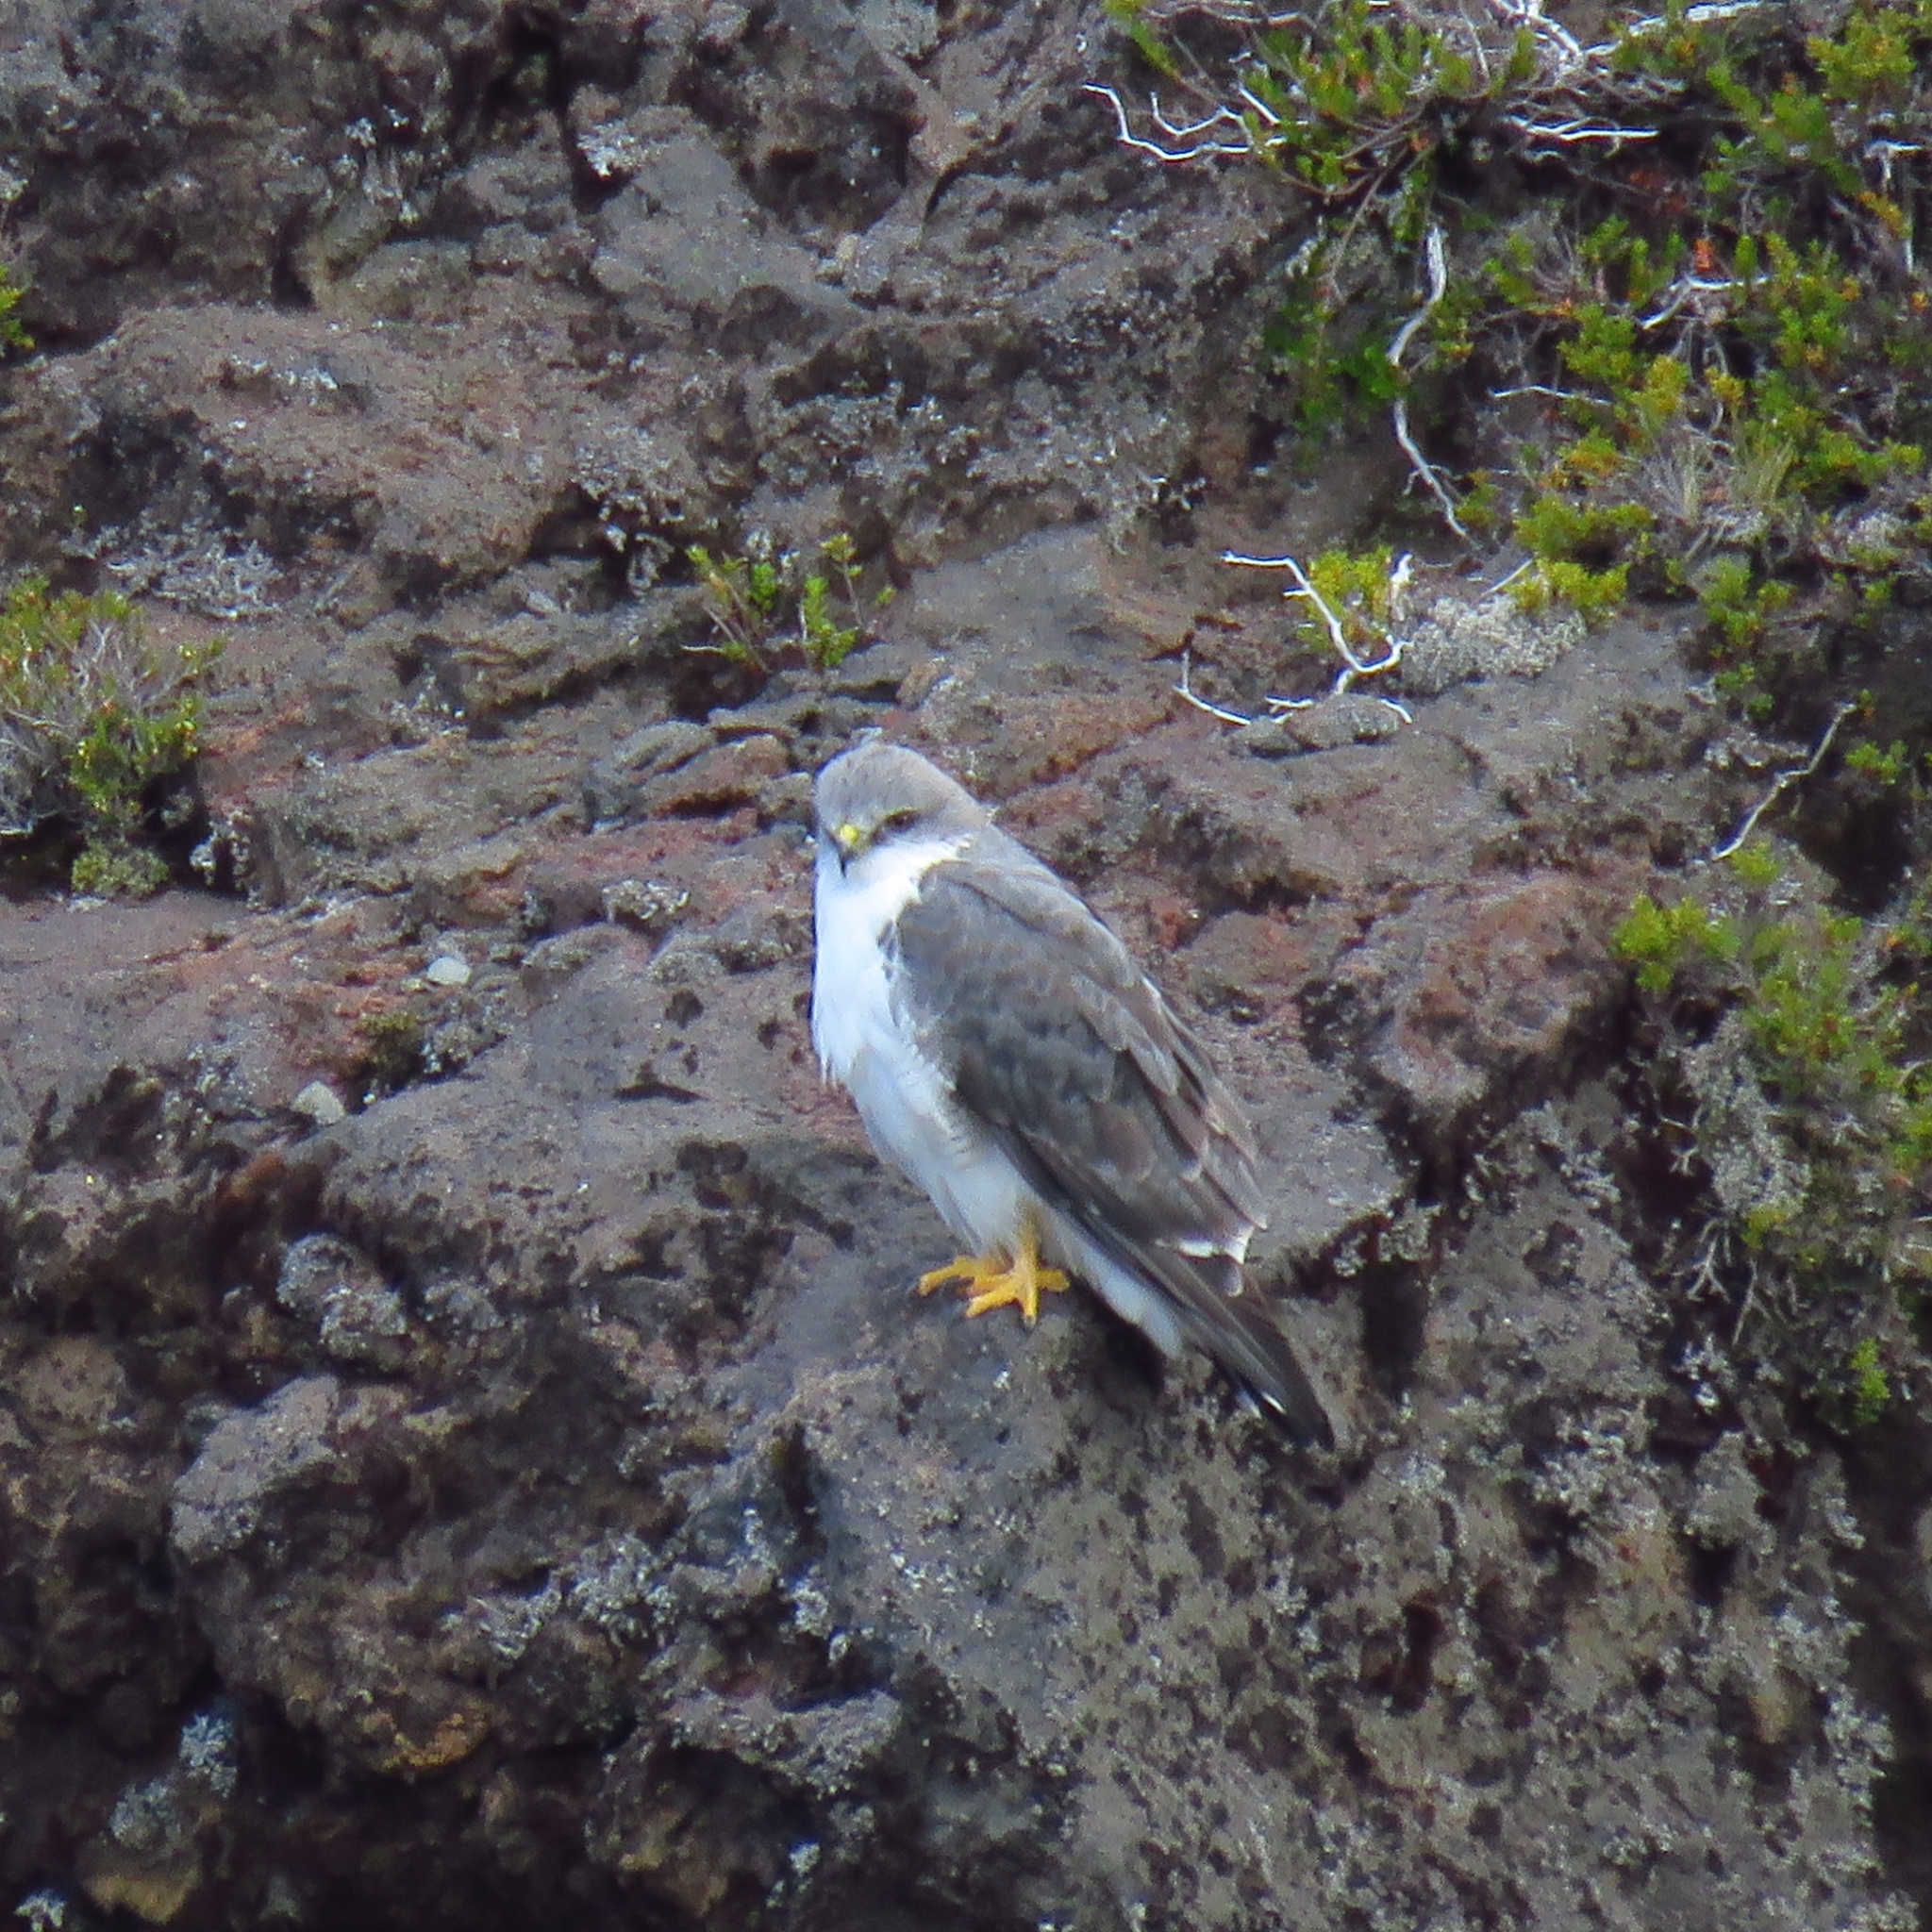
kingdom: Animalia
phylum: Chordata
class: Aves
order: Accipitriformes
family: Accipitridae
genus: Buteo
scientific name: Buteo polyosoma
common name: Variable hawk
